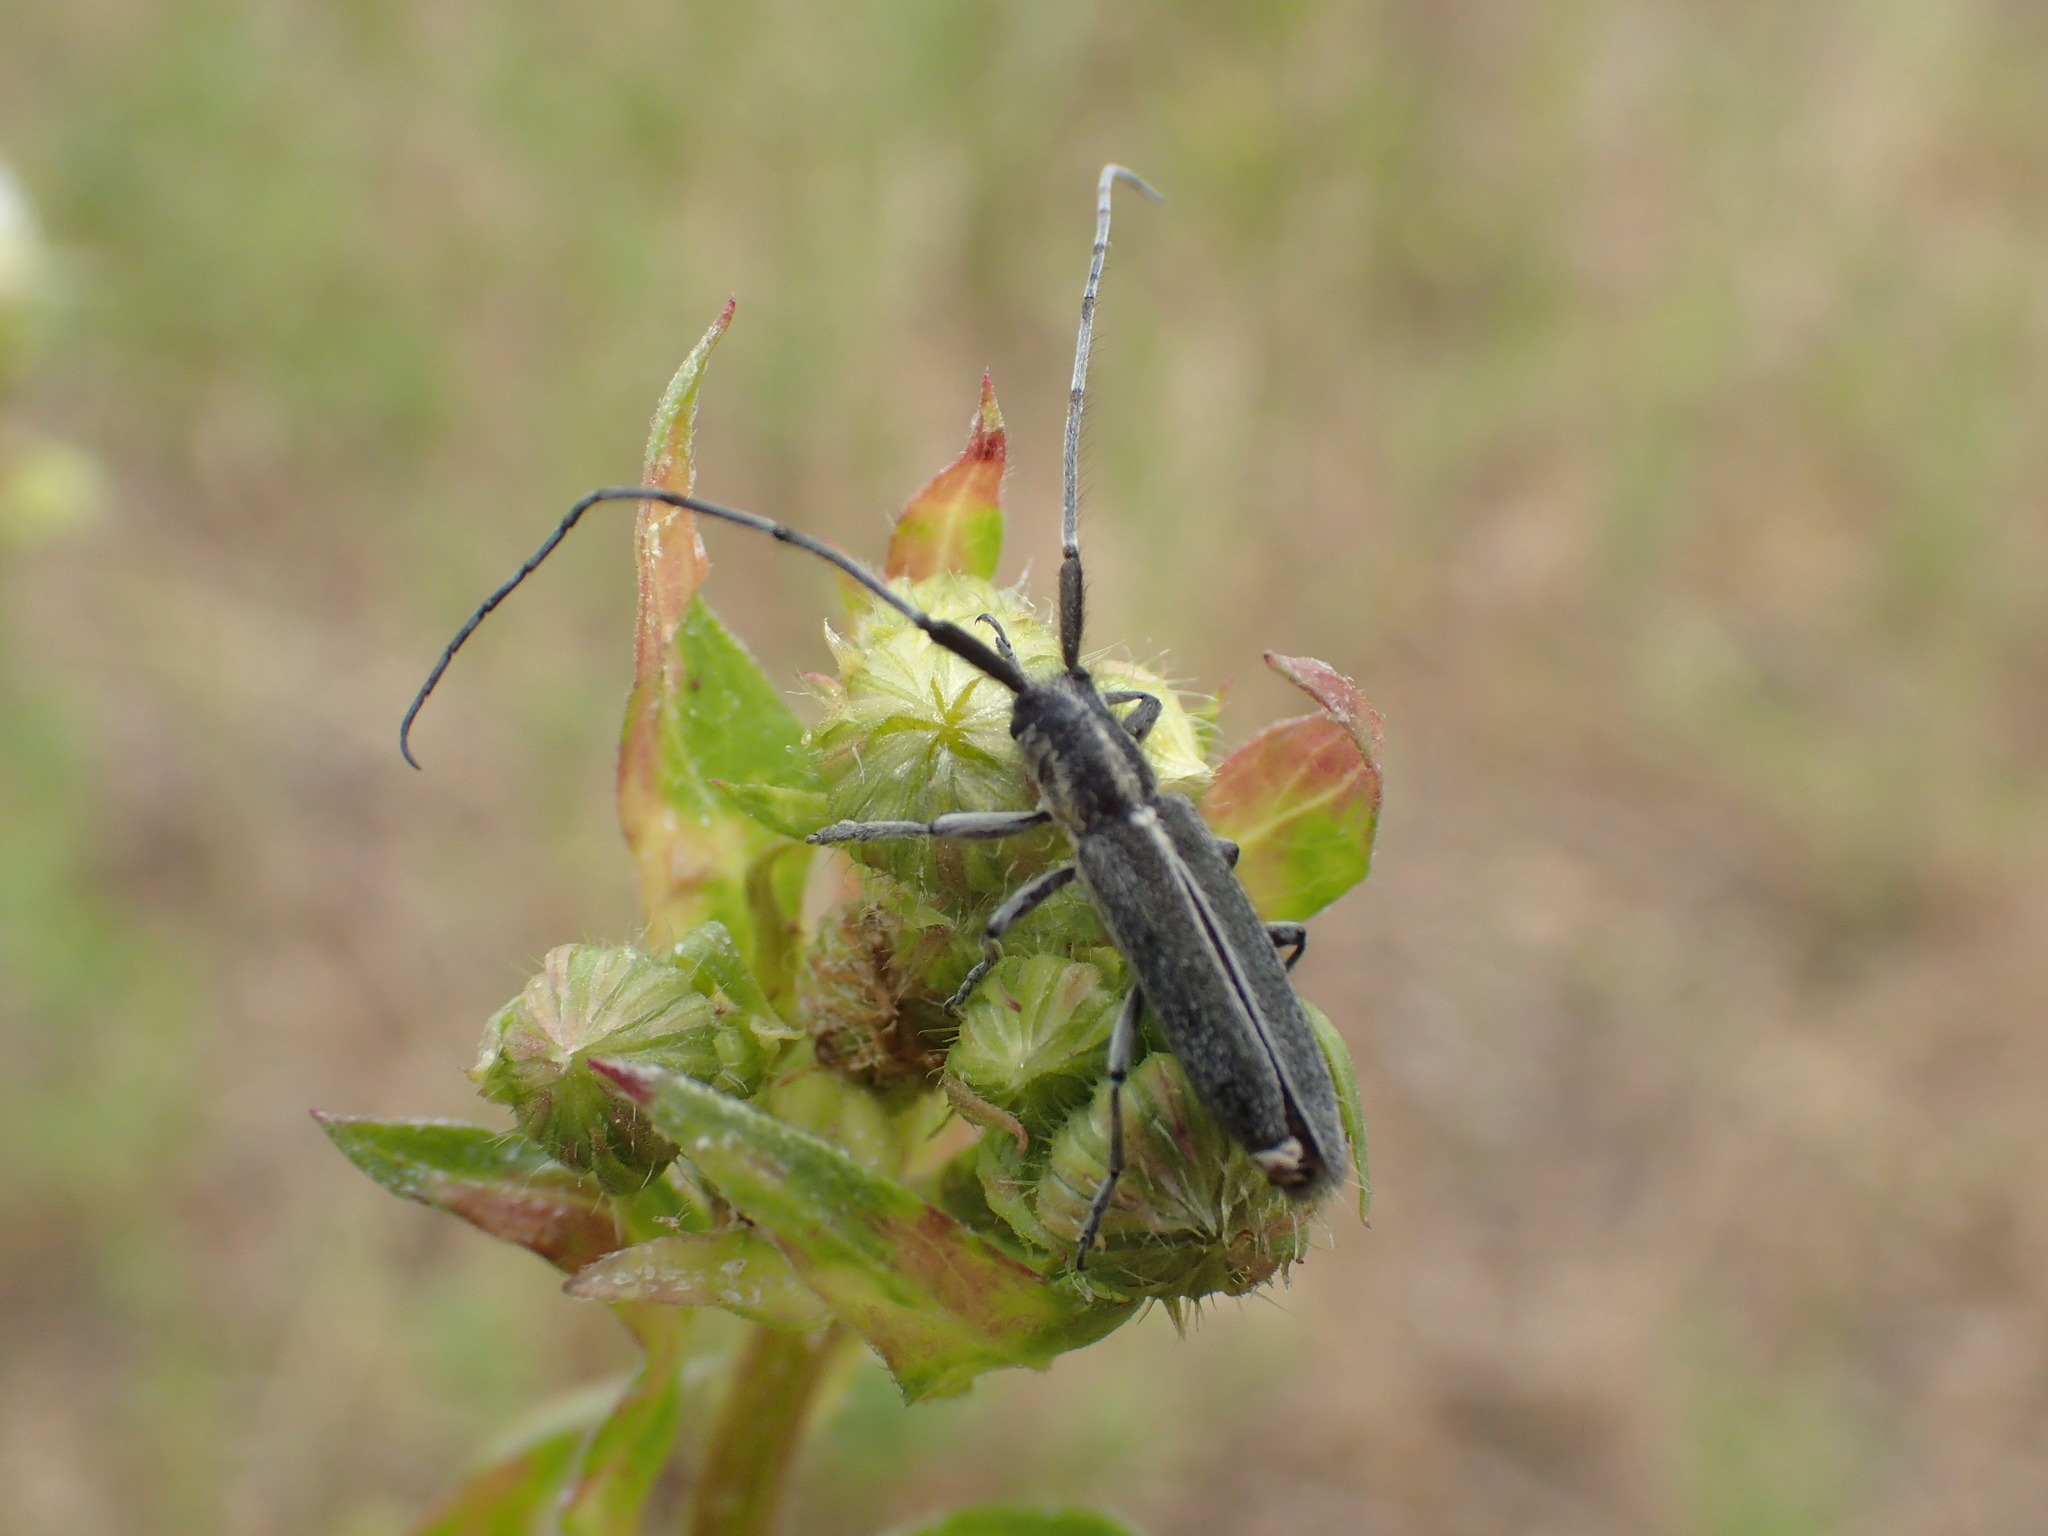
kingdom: Animalia
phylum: Arthropoda
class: Insecta
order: Coleoptera
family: Cerambycidae
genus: Agapanthia
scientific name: Agapanthia cardui
